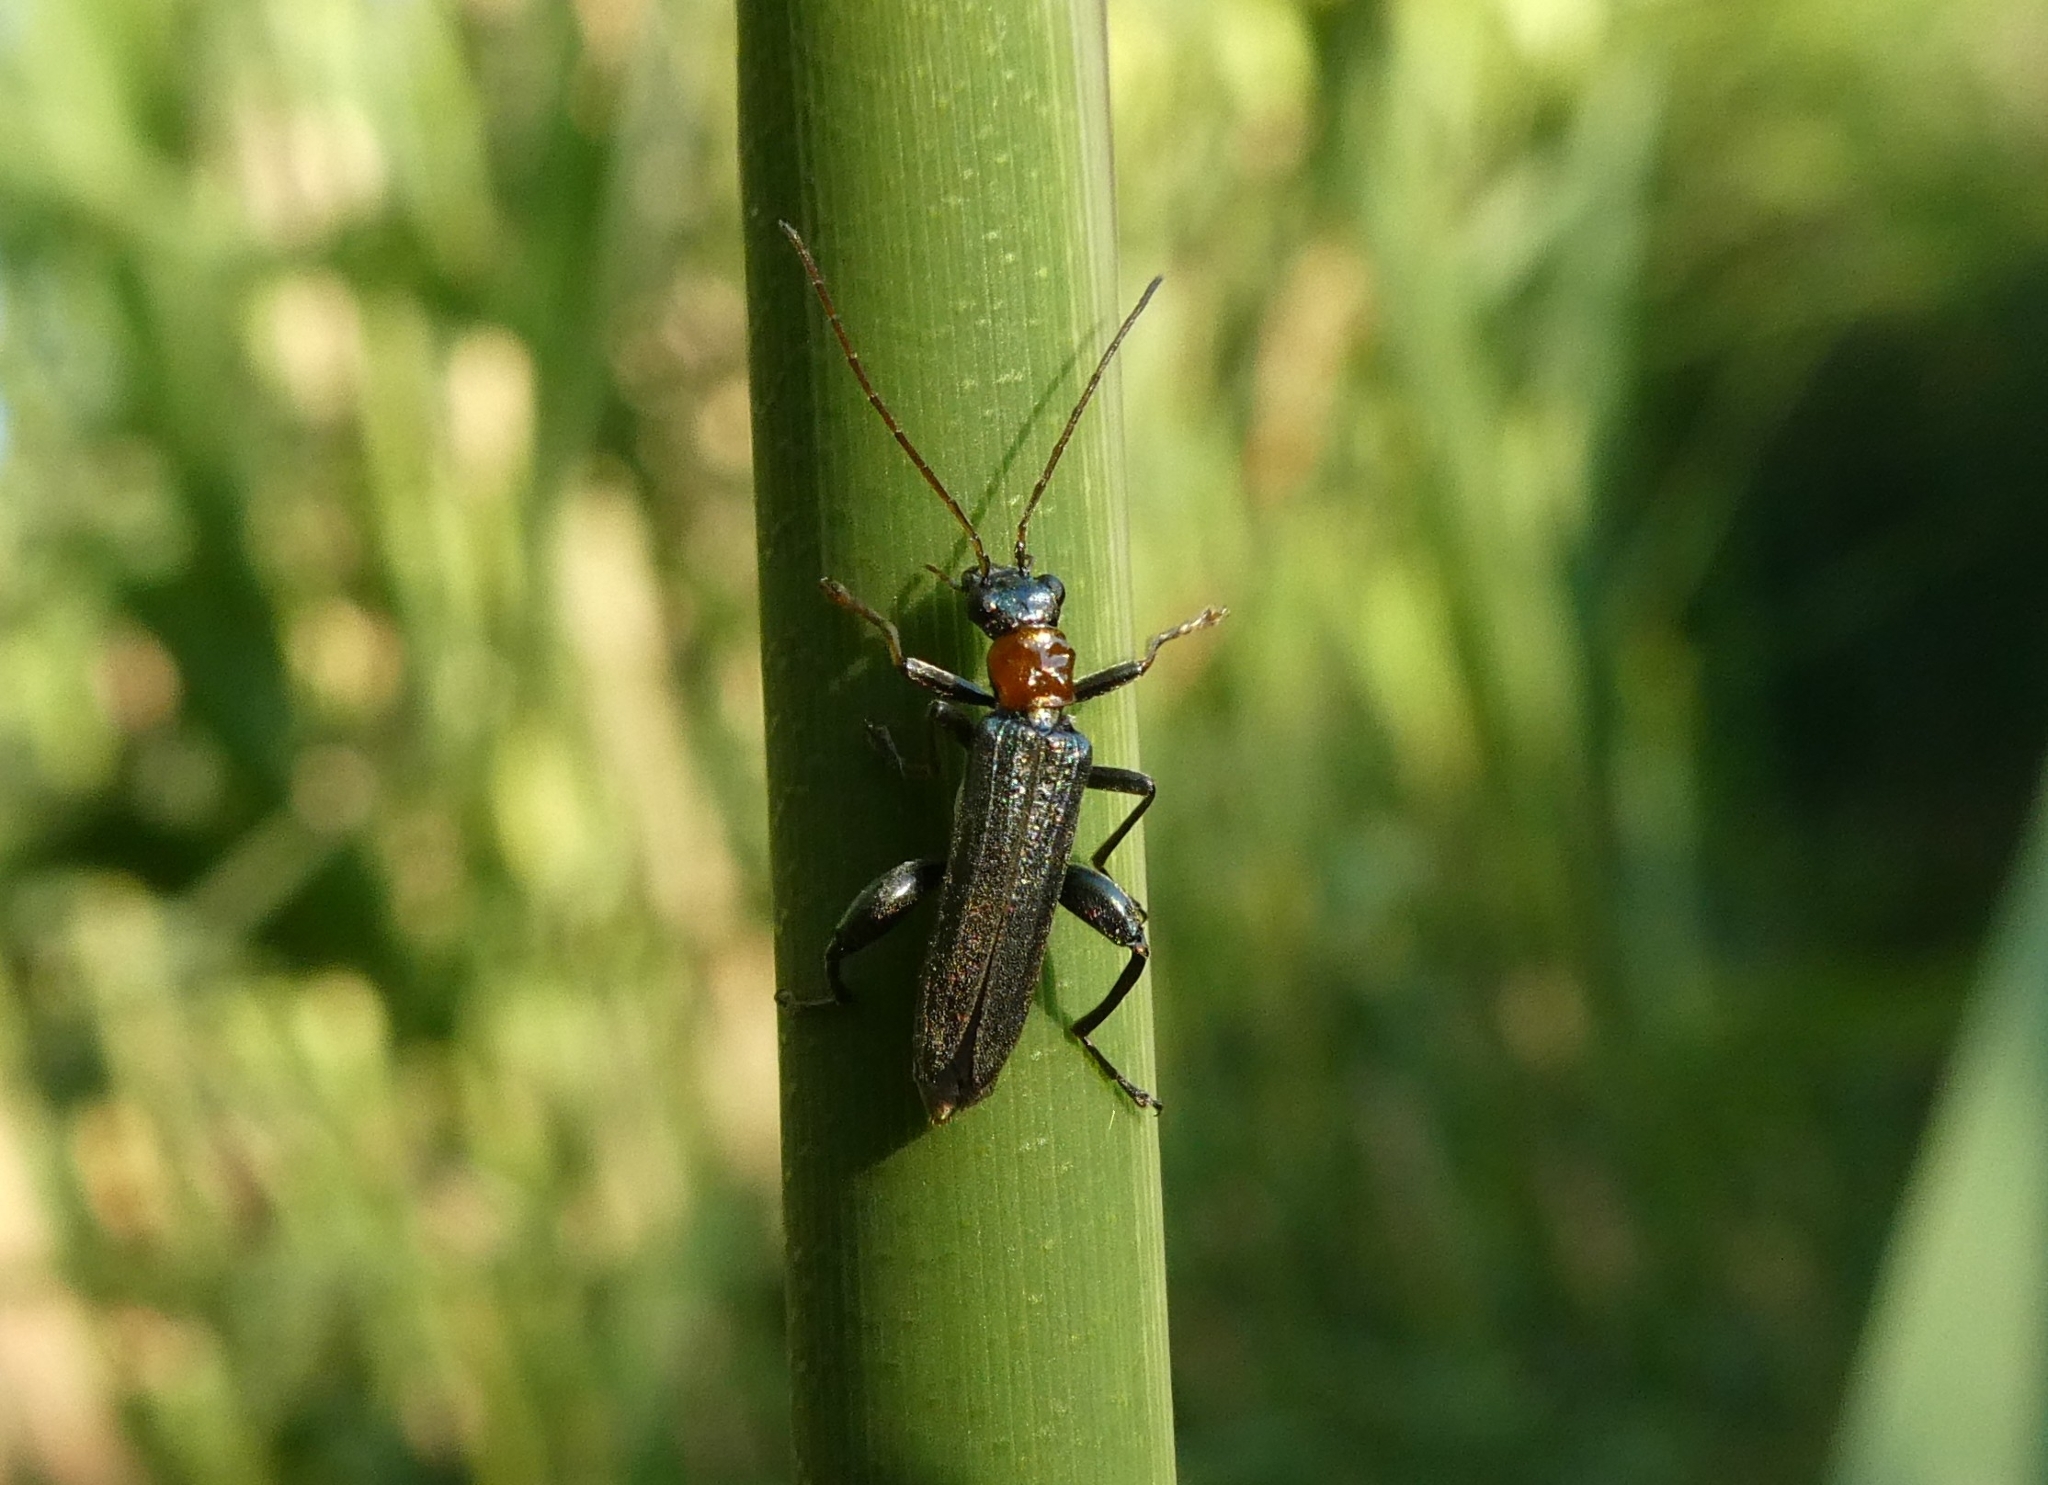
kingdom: Animalia
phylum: Arthropoda
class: Insecta
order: Coleoptera
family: Oedemeridae
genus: Oedemera
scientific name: Oedemera croceicollis
